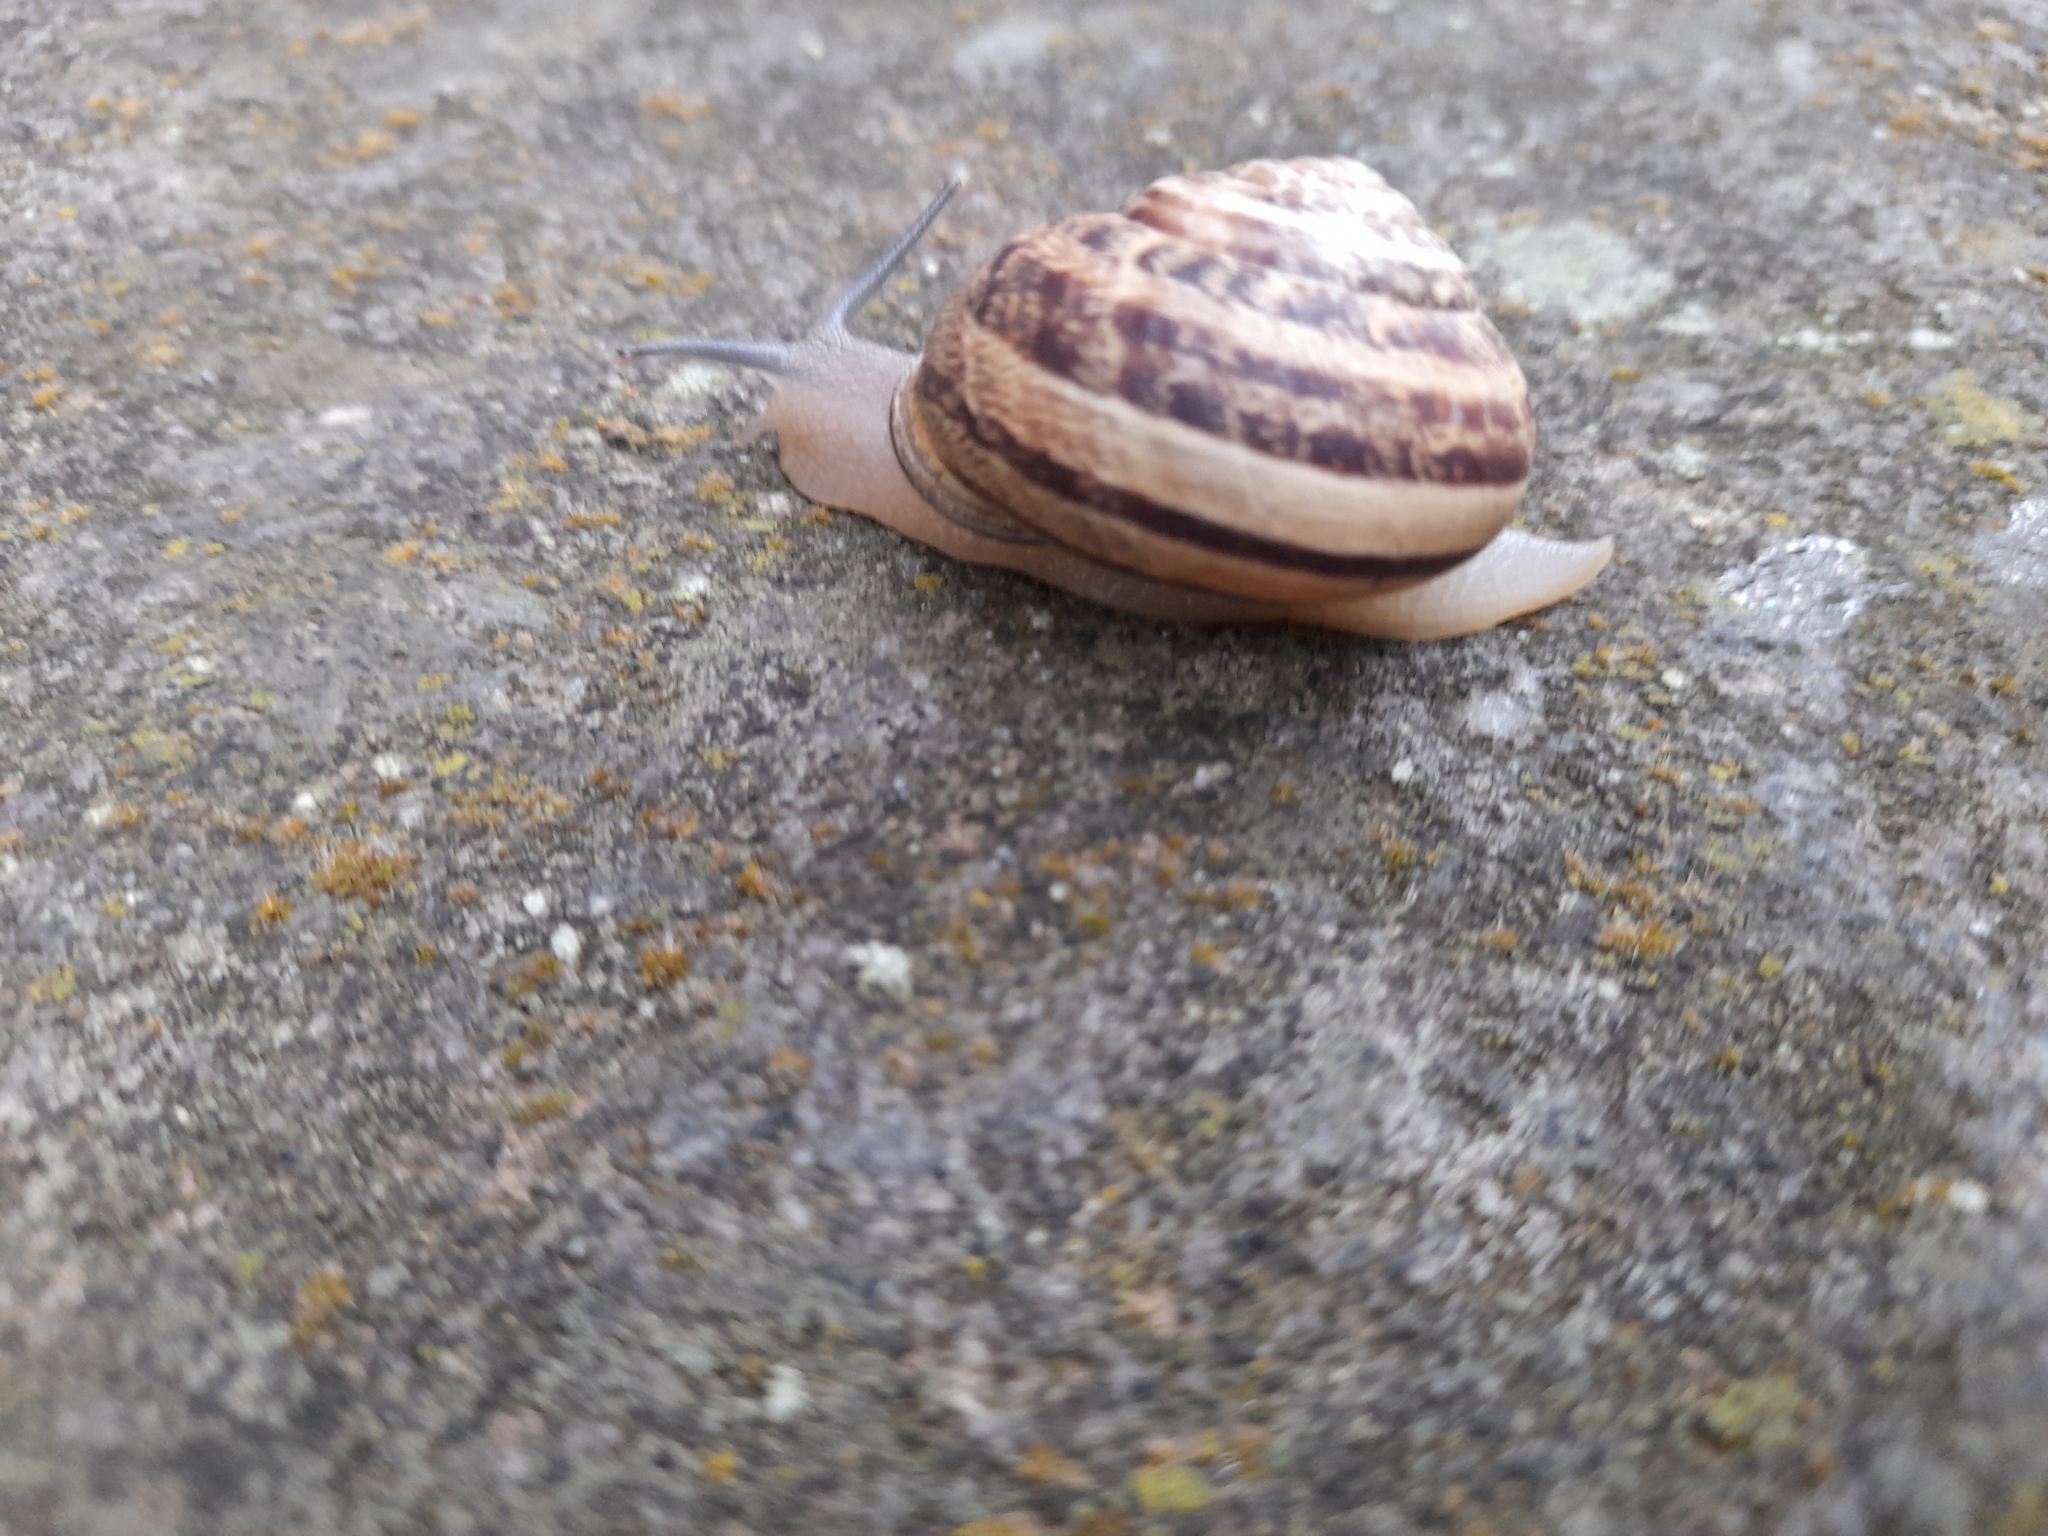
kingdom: Animalia
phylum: Mollusca
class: Gastropoda
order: Stylommatophora
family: Helicidae
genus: Eobania
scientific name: Eobania vermiculata
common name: Chocolateband snail
